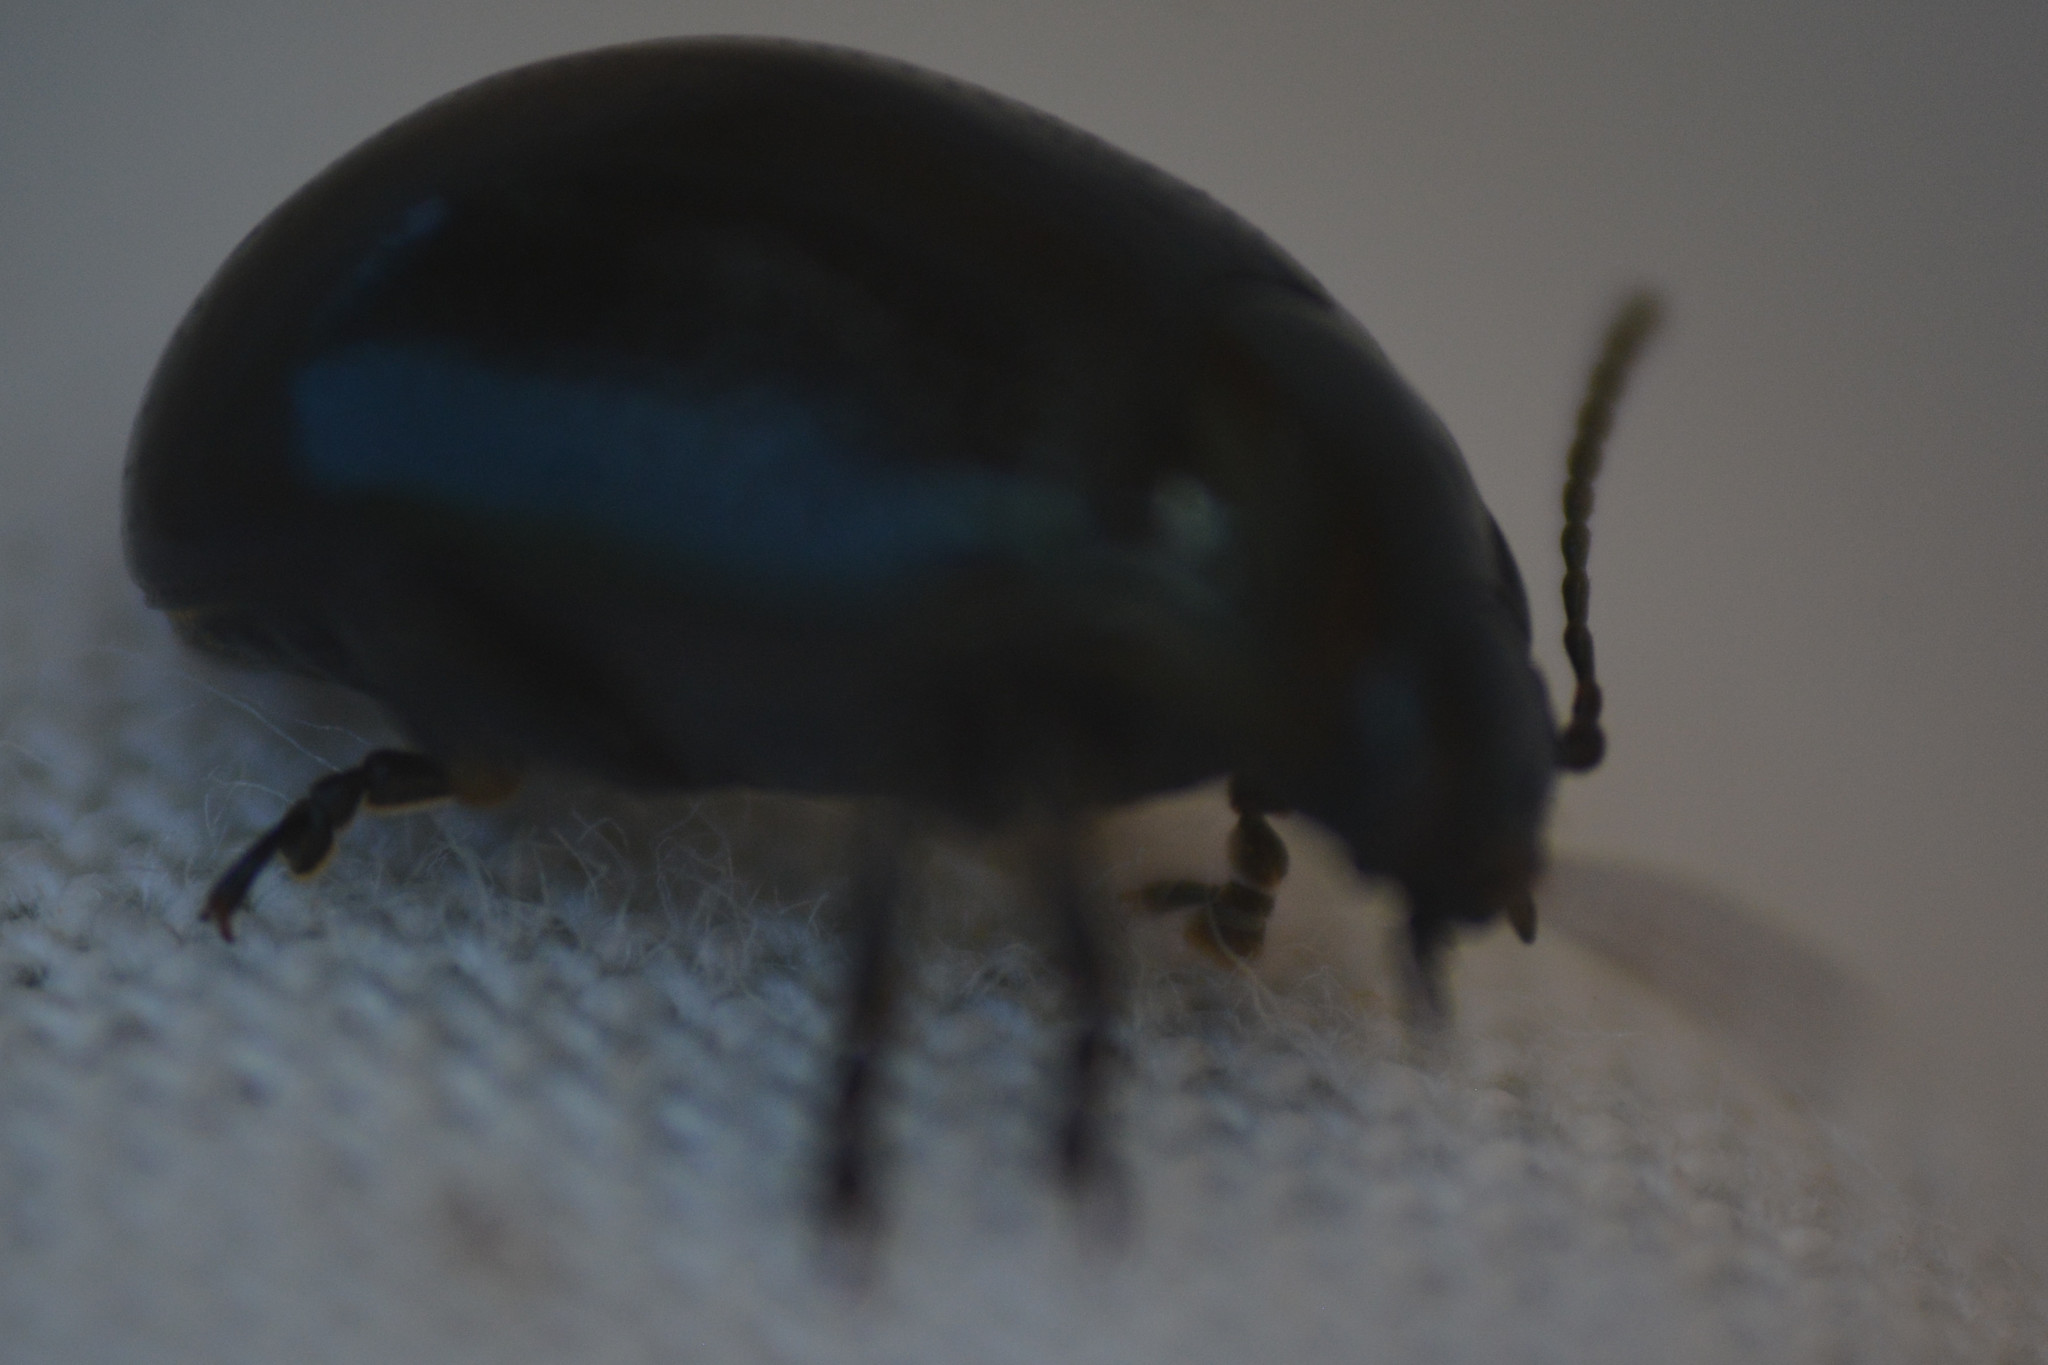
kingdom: Animalia
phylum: Arthropoda
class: Insecta
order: Coleoptera
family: Chrysomelidae
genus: Chrysolina
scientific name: Chrysolina oricalcia
